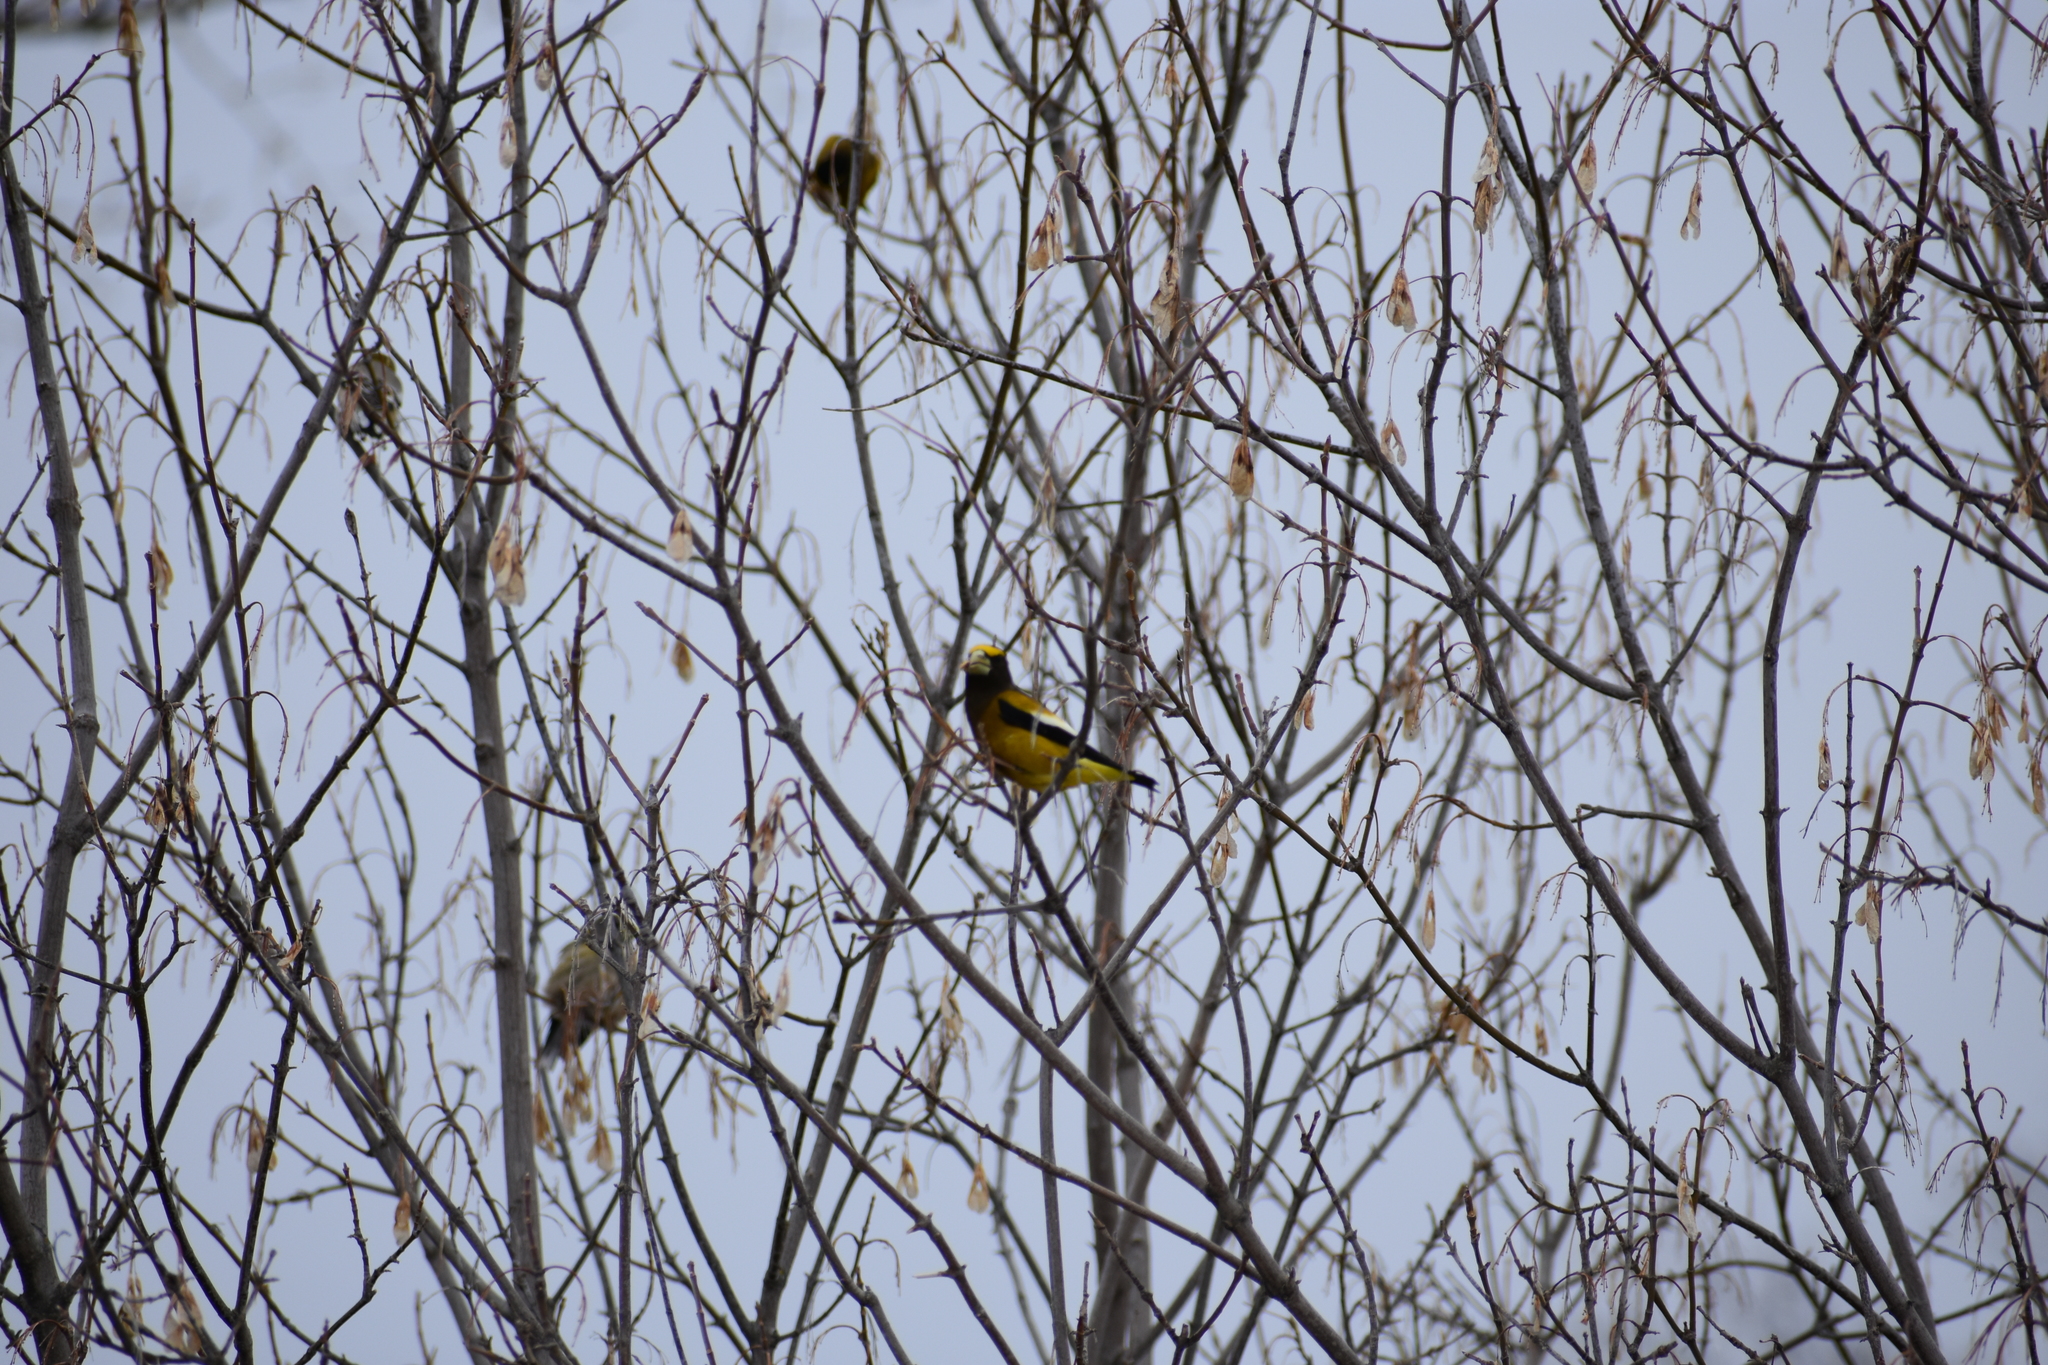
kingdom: Animalia
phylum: Chordata
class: Aves
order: Passeriformes
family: Fringillidae
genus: Hesperiphona
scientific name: Hesperiphona vespertina
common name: Evening grosbeak
